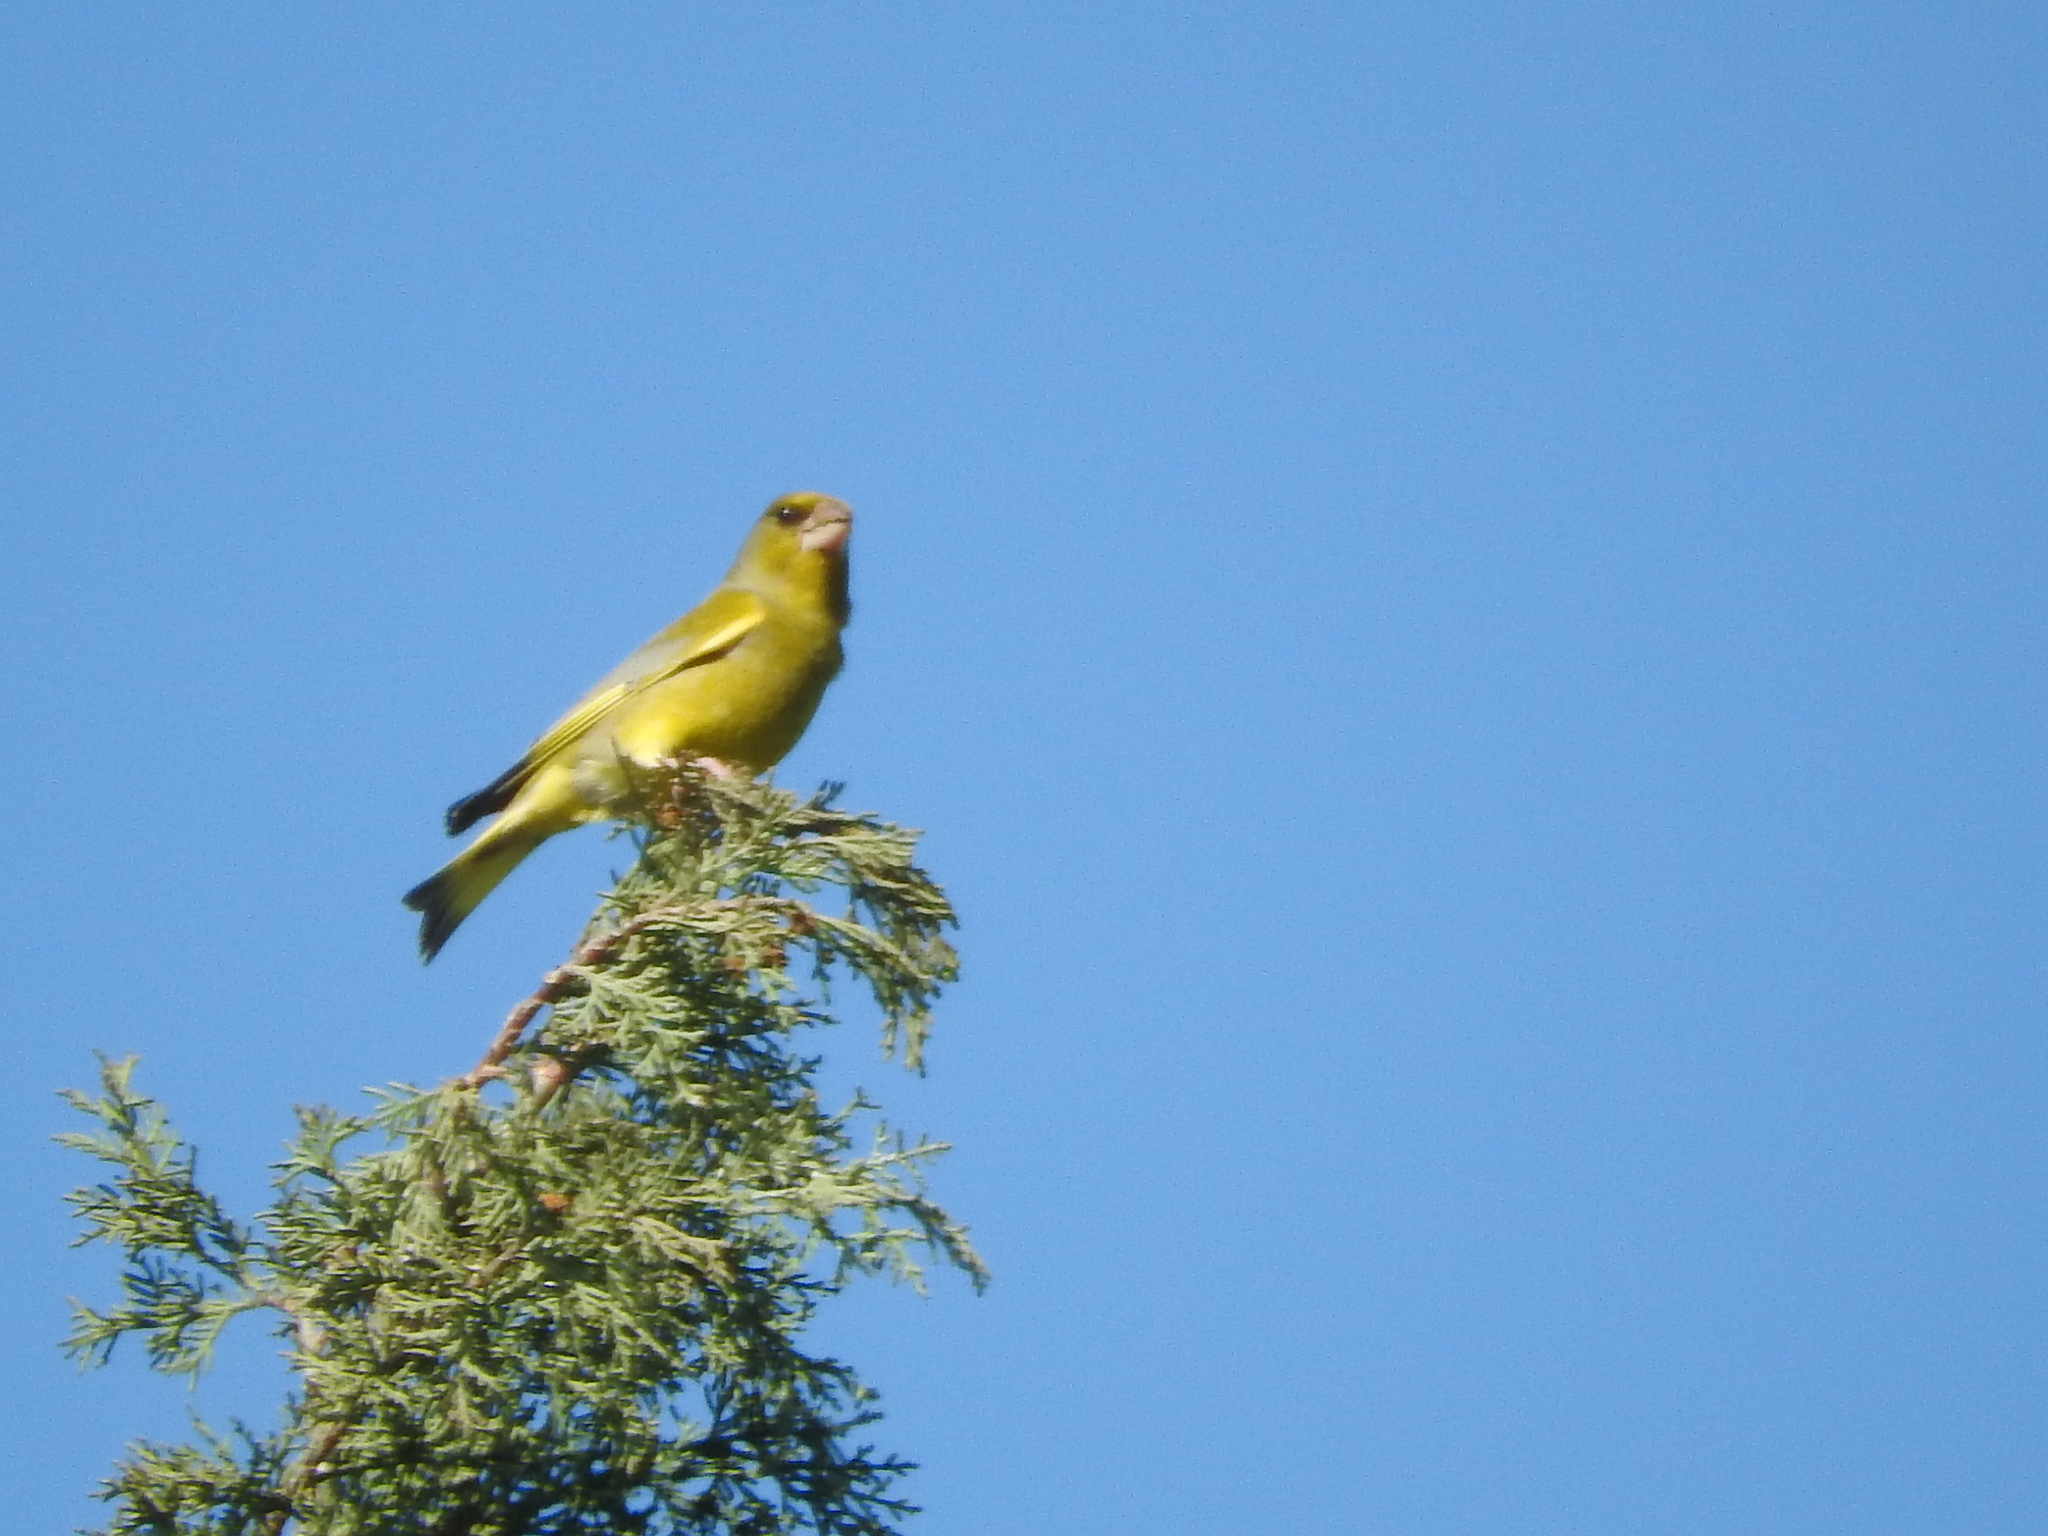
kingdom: Plantae
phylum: Tracheophyta
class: Liliopsida
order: Poales
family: Poaceae
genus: Chloris
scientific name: Chloris chloris
